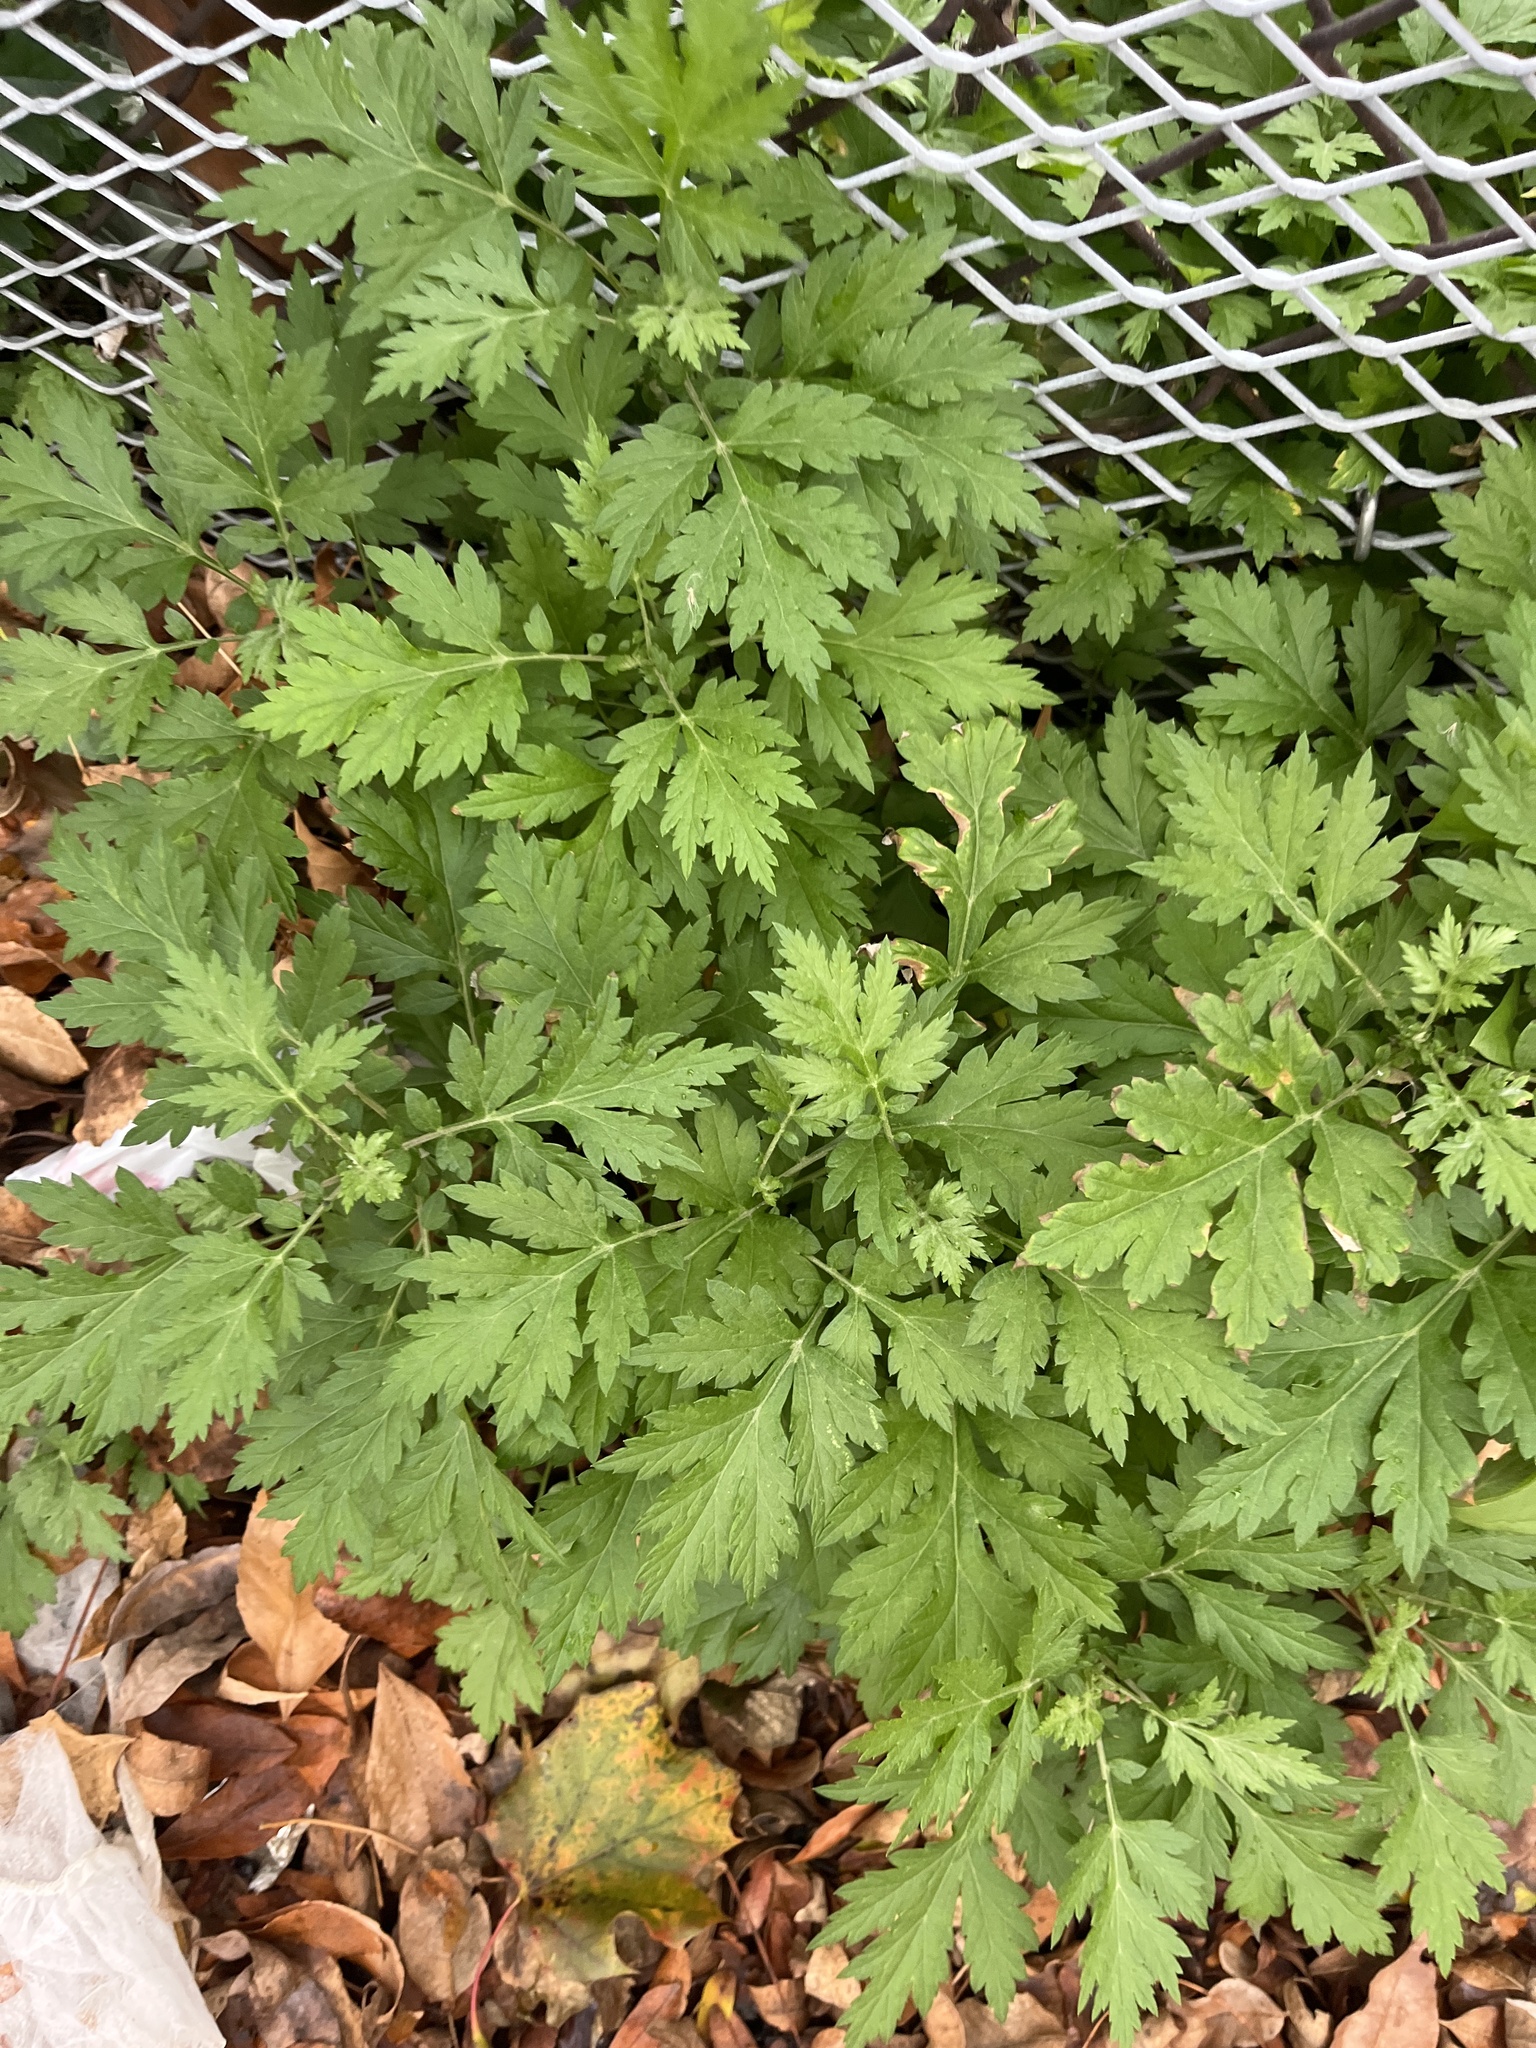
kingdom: Plantae
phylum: Tracheophyta
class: Magnoliopsida
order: Asterales
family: Asteraceae
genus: Artemisia
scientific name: Artemisia vulgaris
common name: Mugwort
